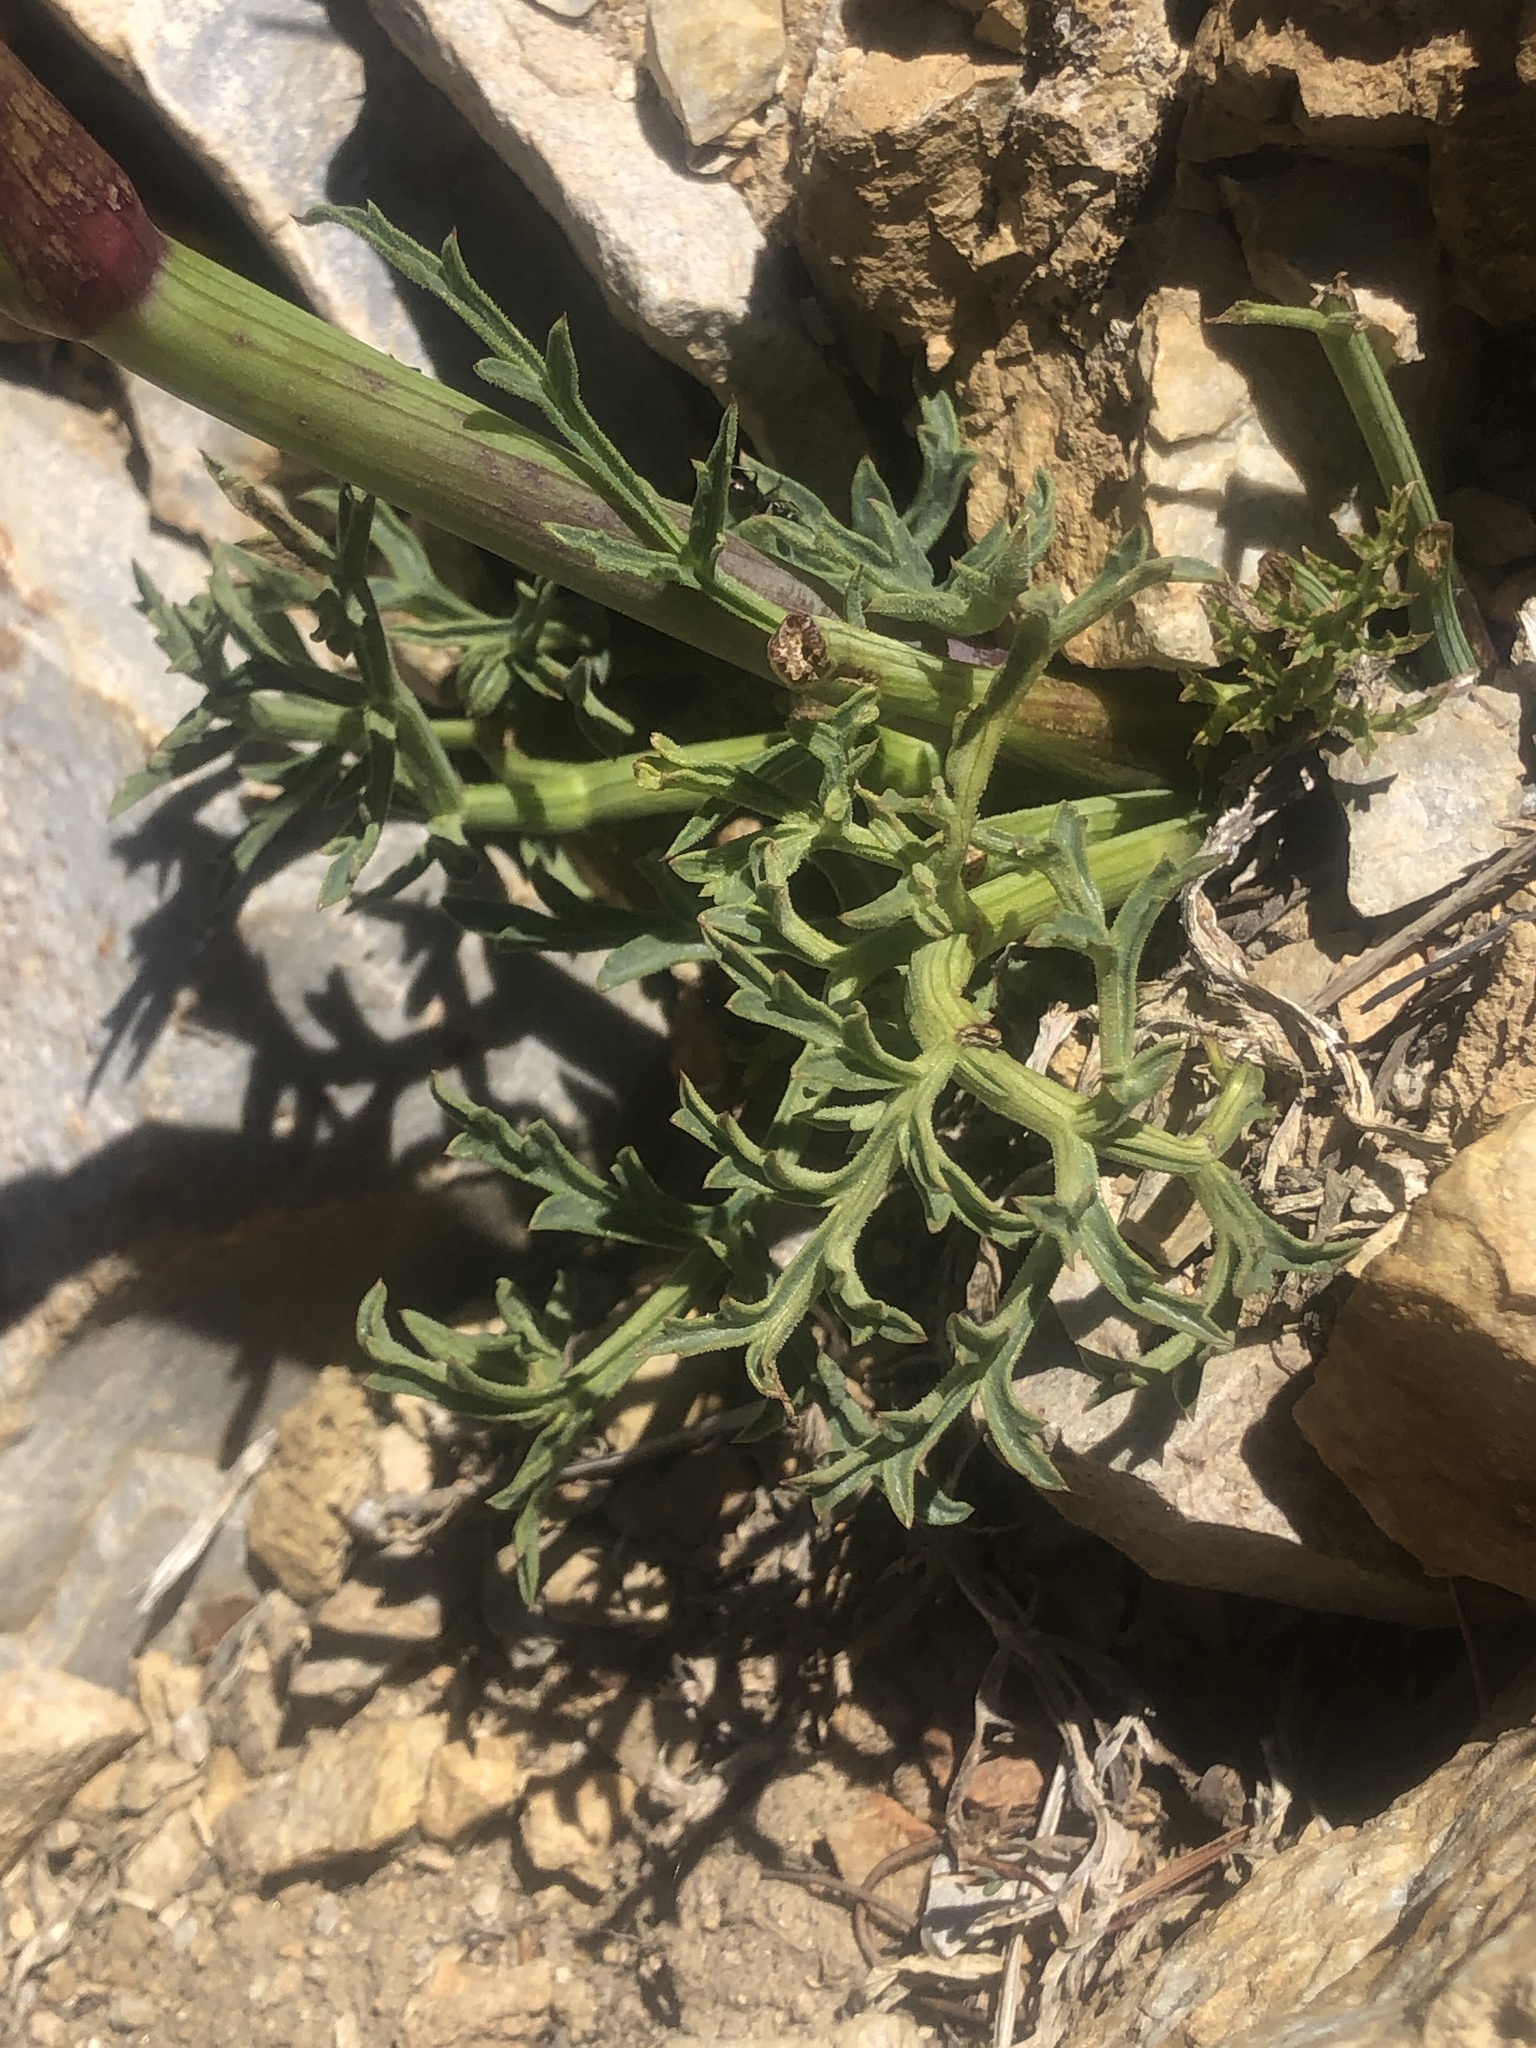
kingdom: Plantae
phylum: Tracheophyta
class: Magnoliopsida
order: Apiales
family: Apiaceae
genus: Angelica
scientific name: Angelica capitellata
